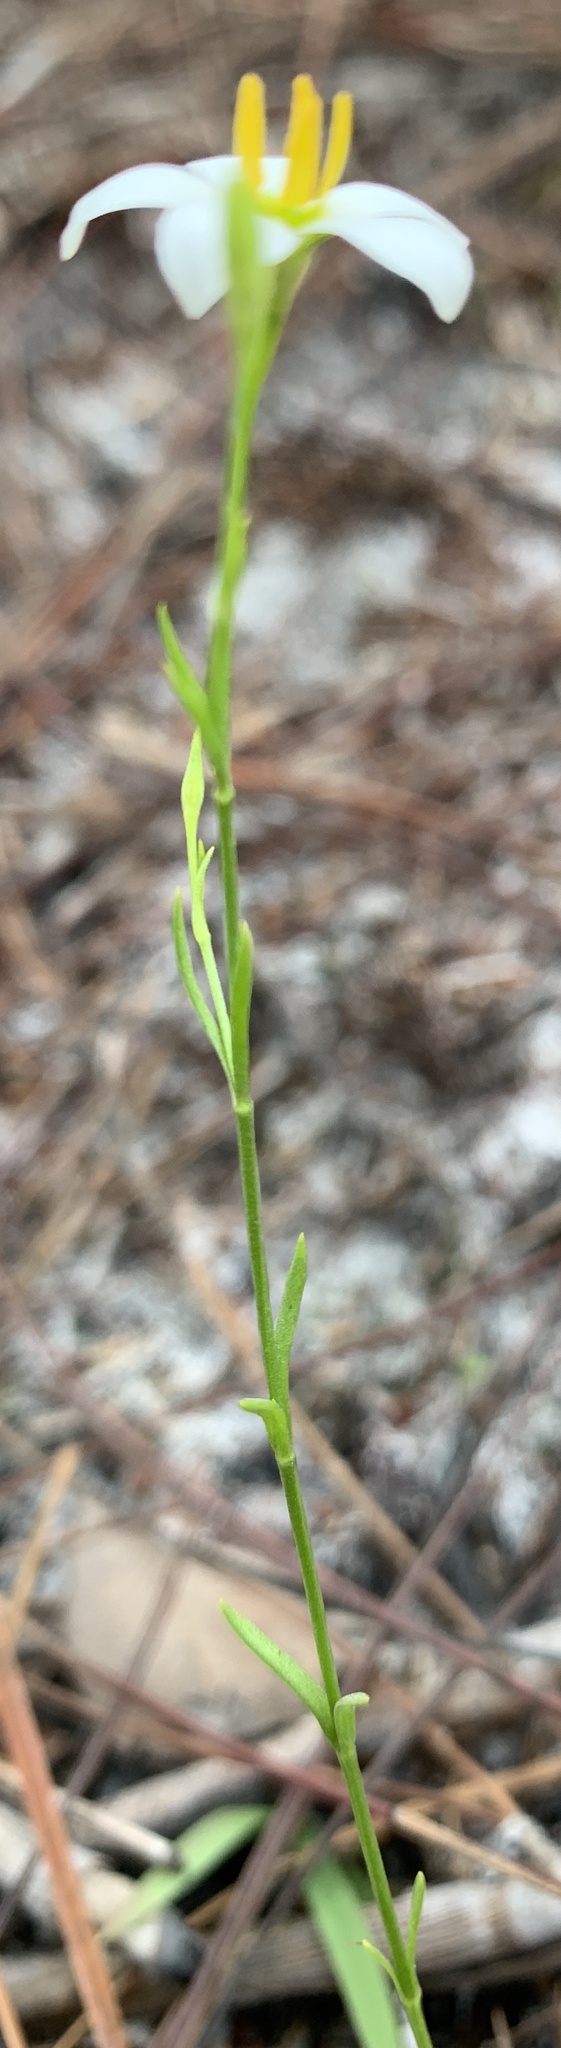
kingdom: Plantae
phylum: Tracheophyta
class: Magnoliopsida
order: Gentianales
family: Gentianaceae
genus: Sabatia
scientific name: Sabatia brevifolia
